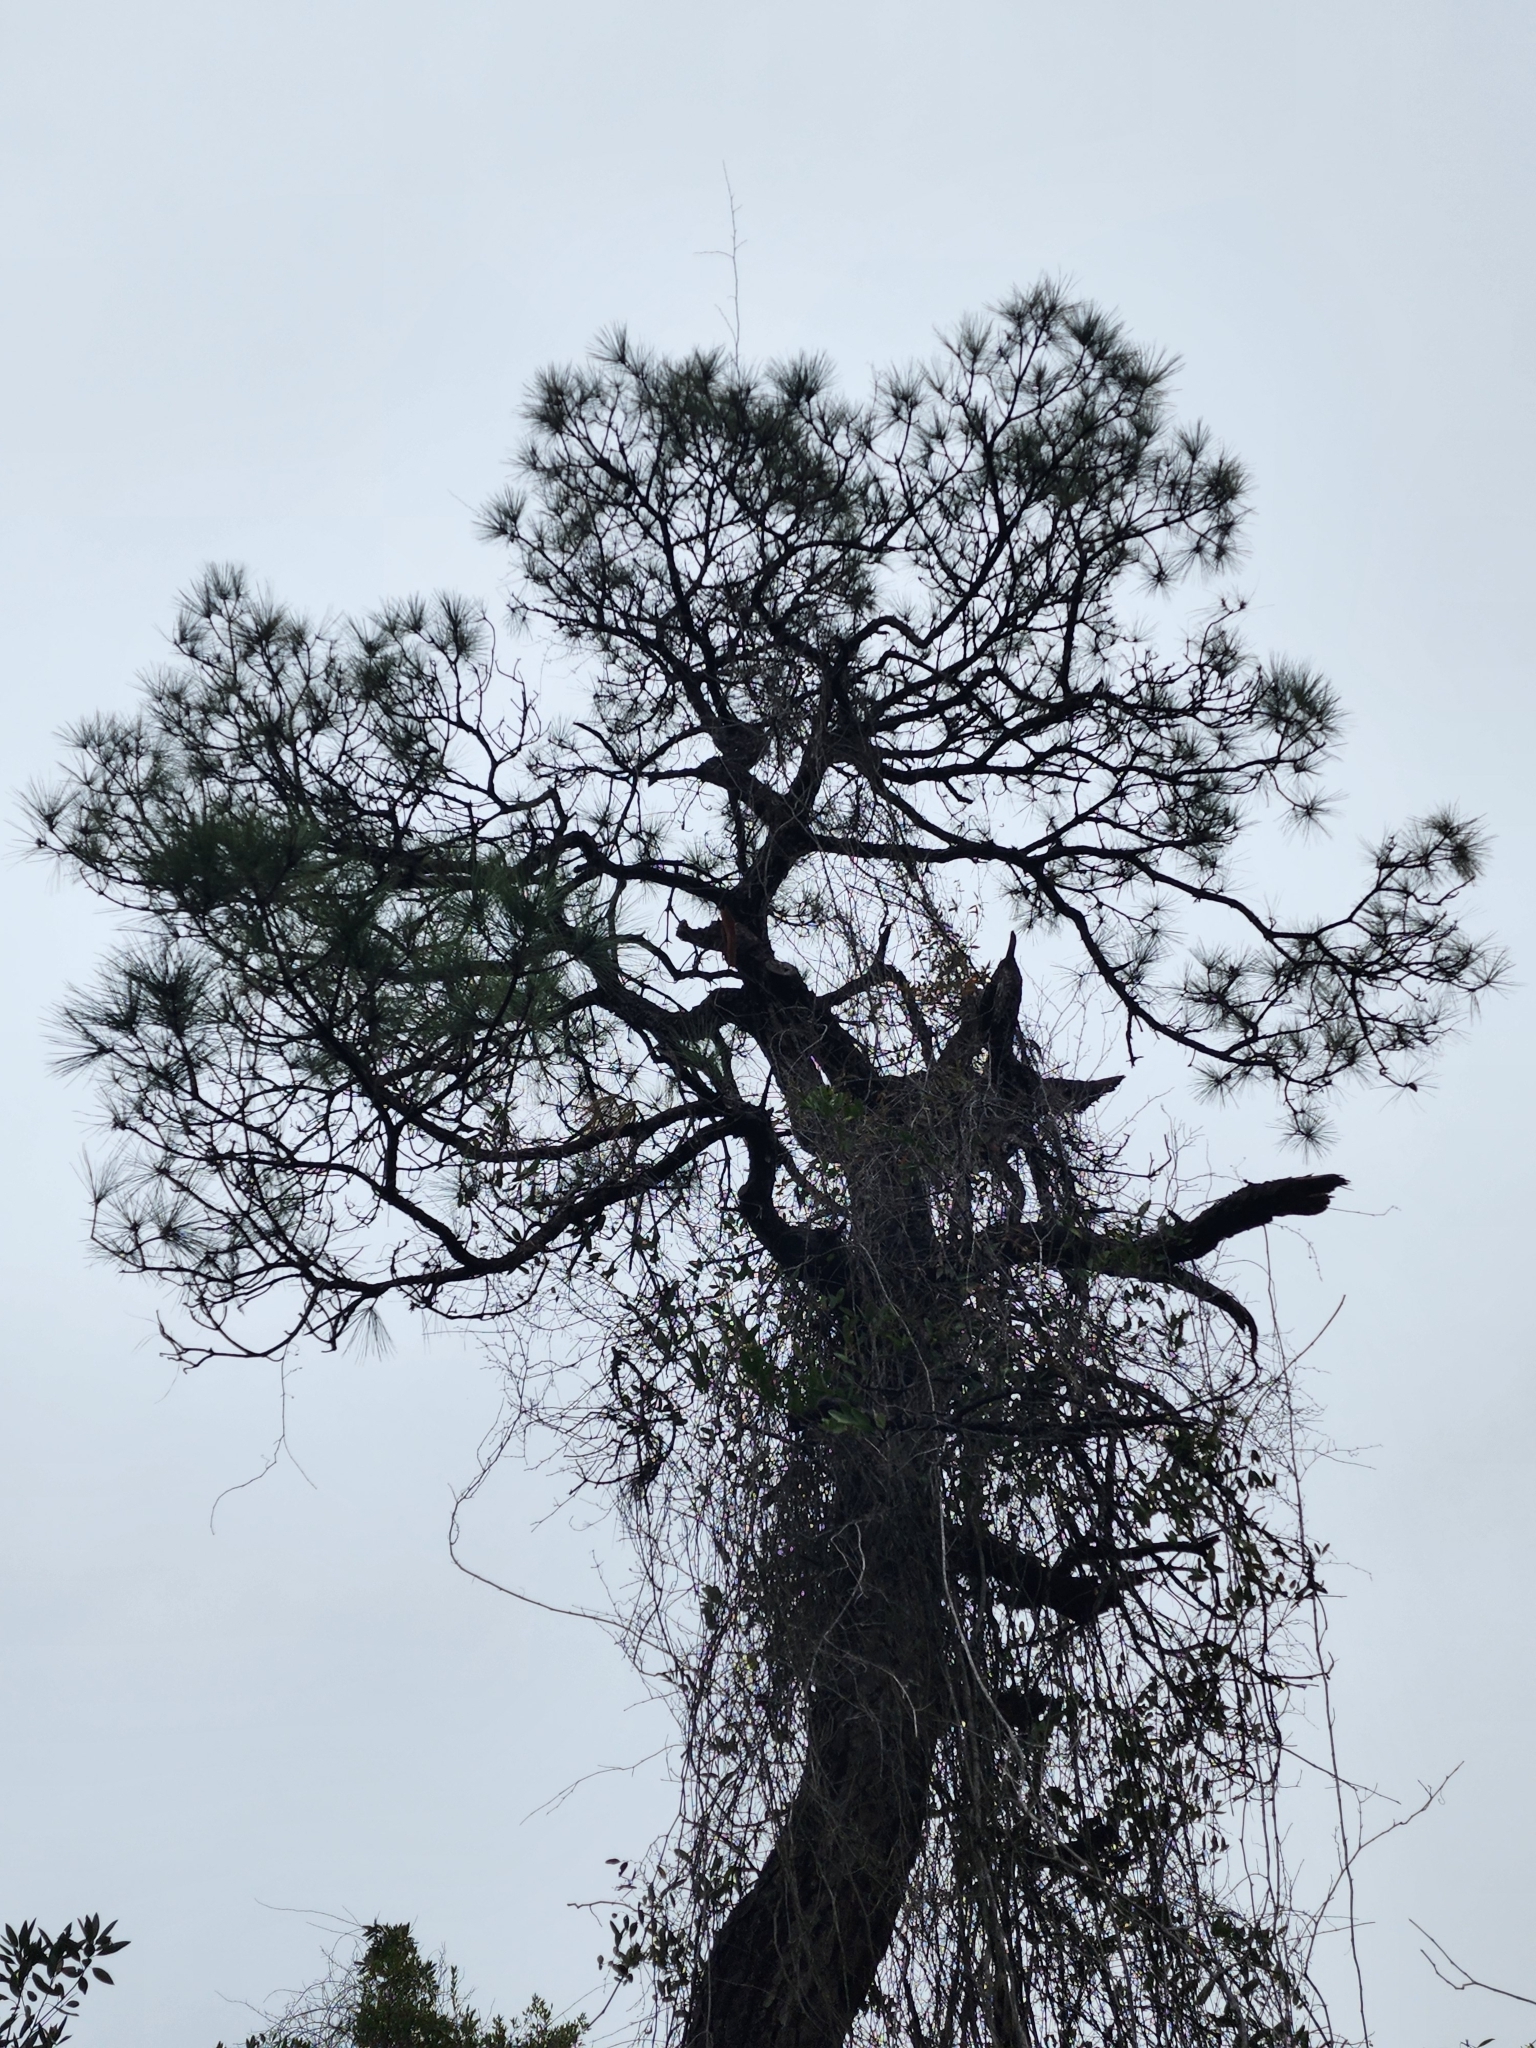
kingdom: Plantae
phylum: Tracheophyta
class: Pinopsida
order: Pinales
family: Pinaceae
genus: Pinus
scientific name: Pinus serotina
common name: Marsh pine
